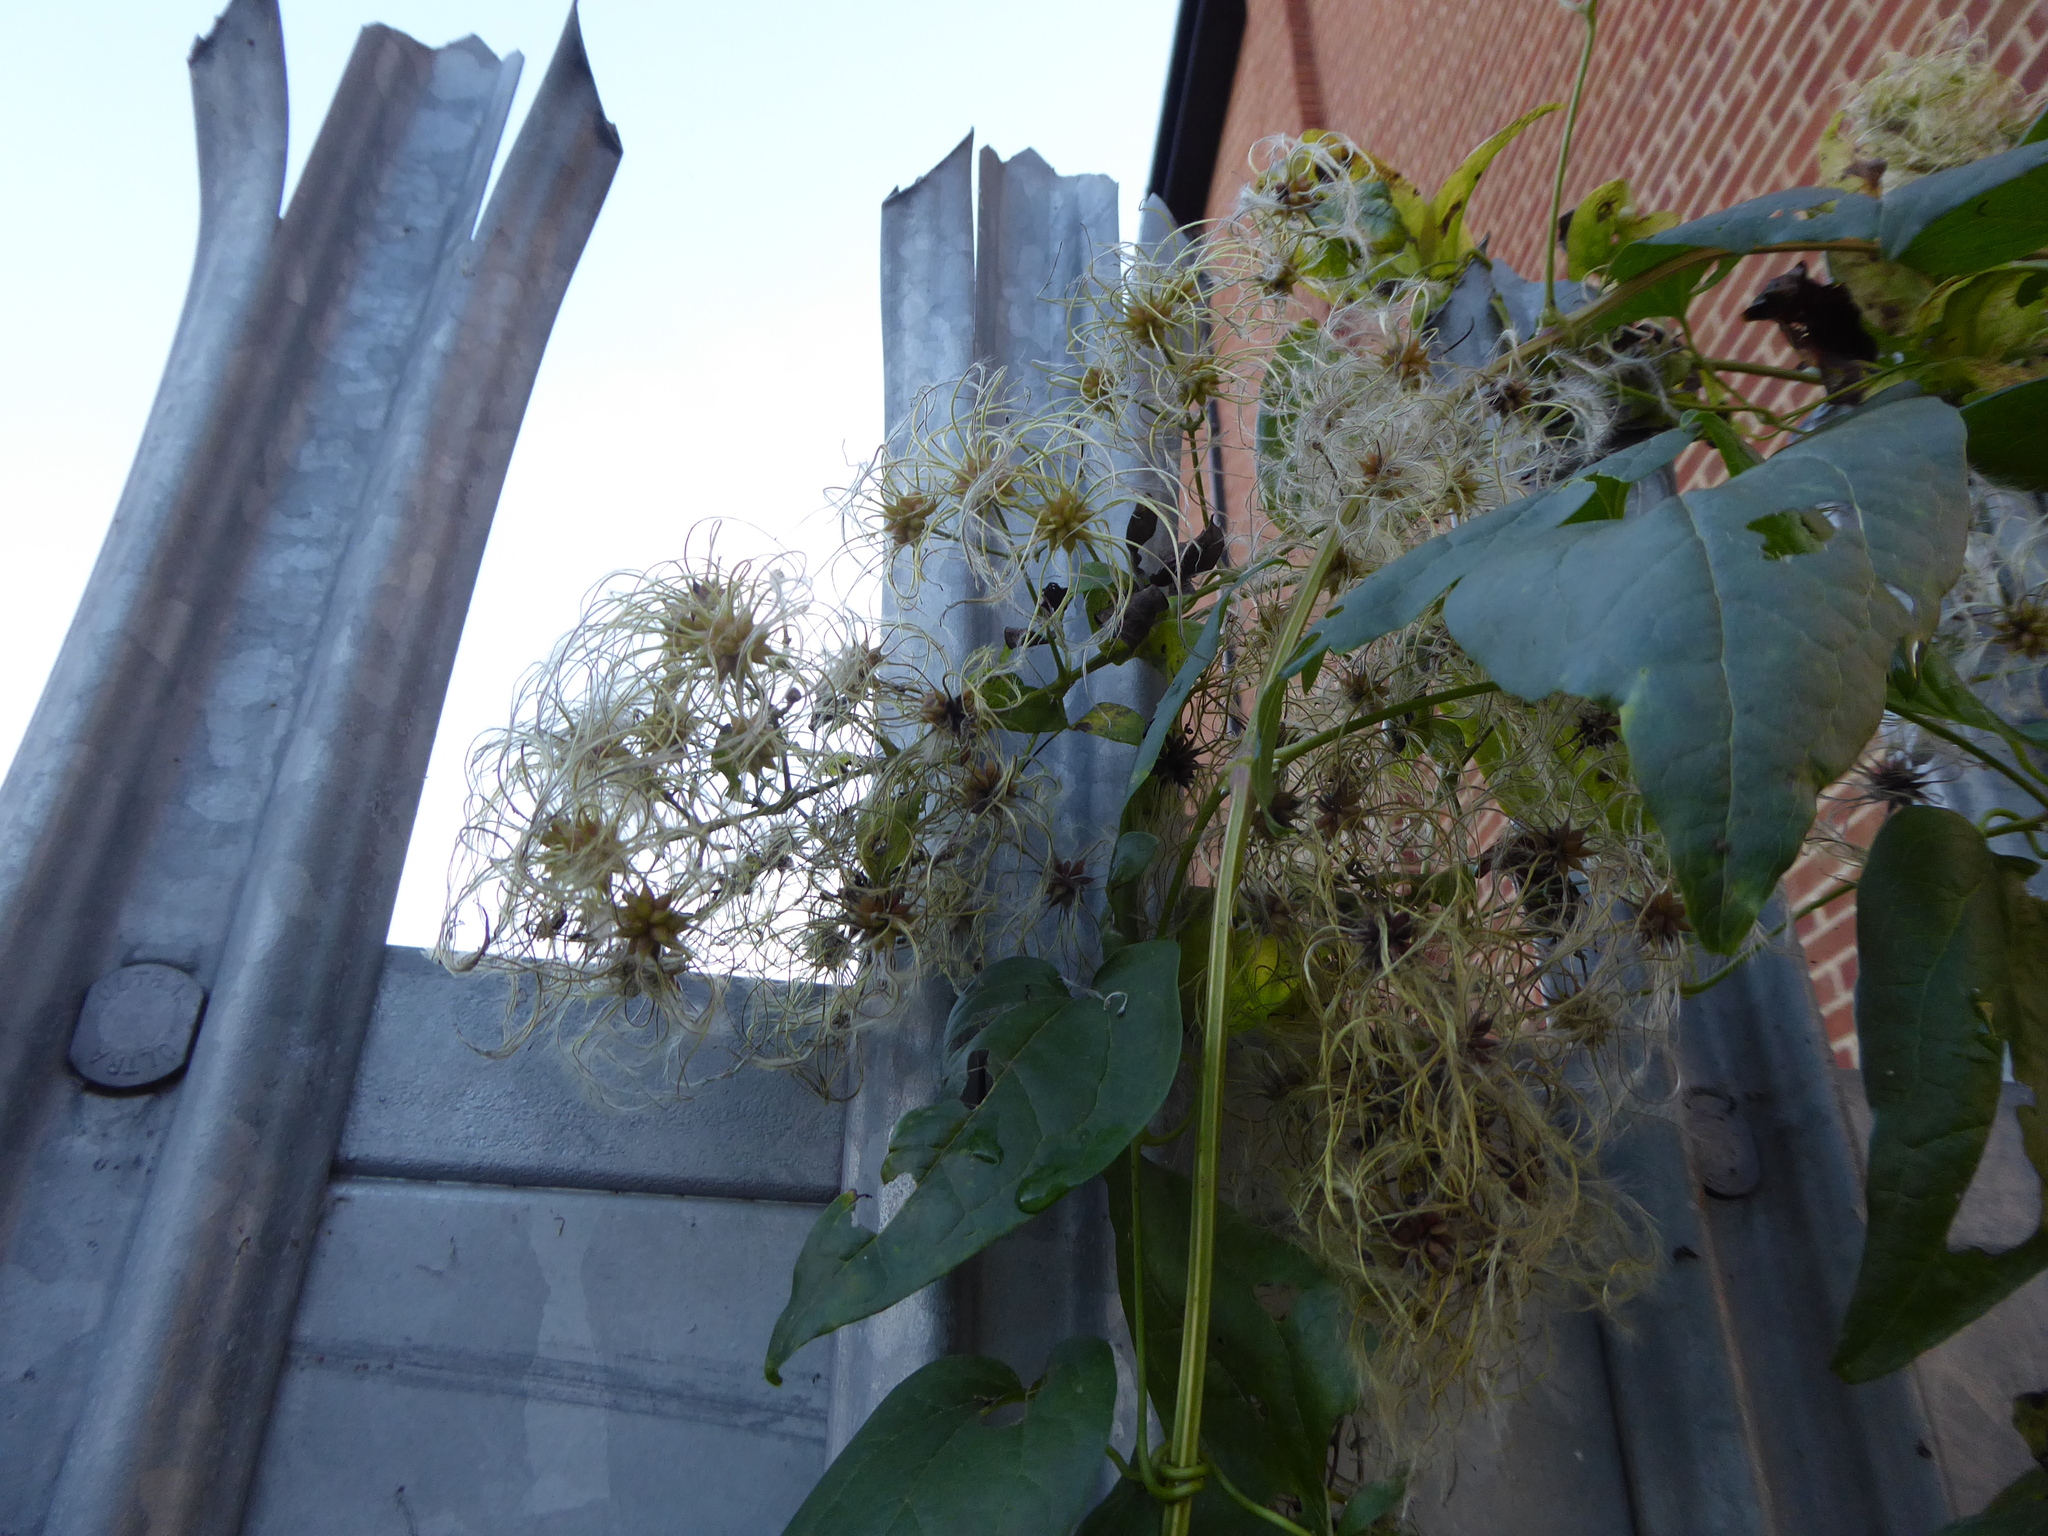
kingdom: Plantae
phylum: Tracheophyta
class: Magnoliopsida
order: Ranunculales
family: Ranunculaceae
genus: Clematis
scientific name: Clematis vitalba
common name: Evergreen clematis
